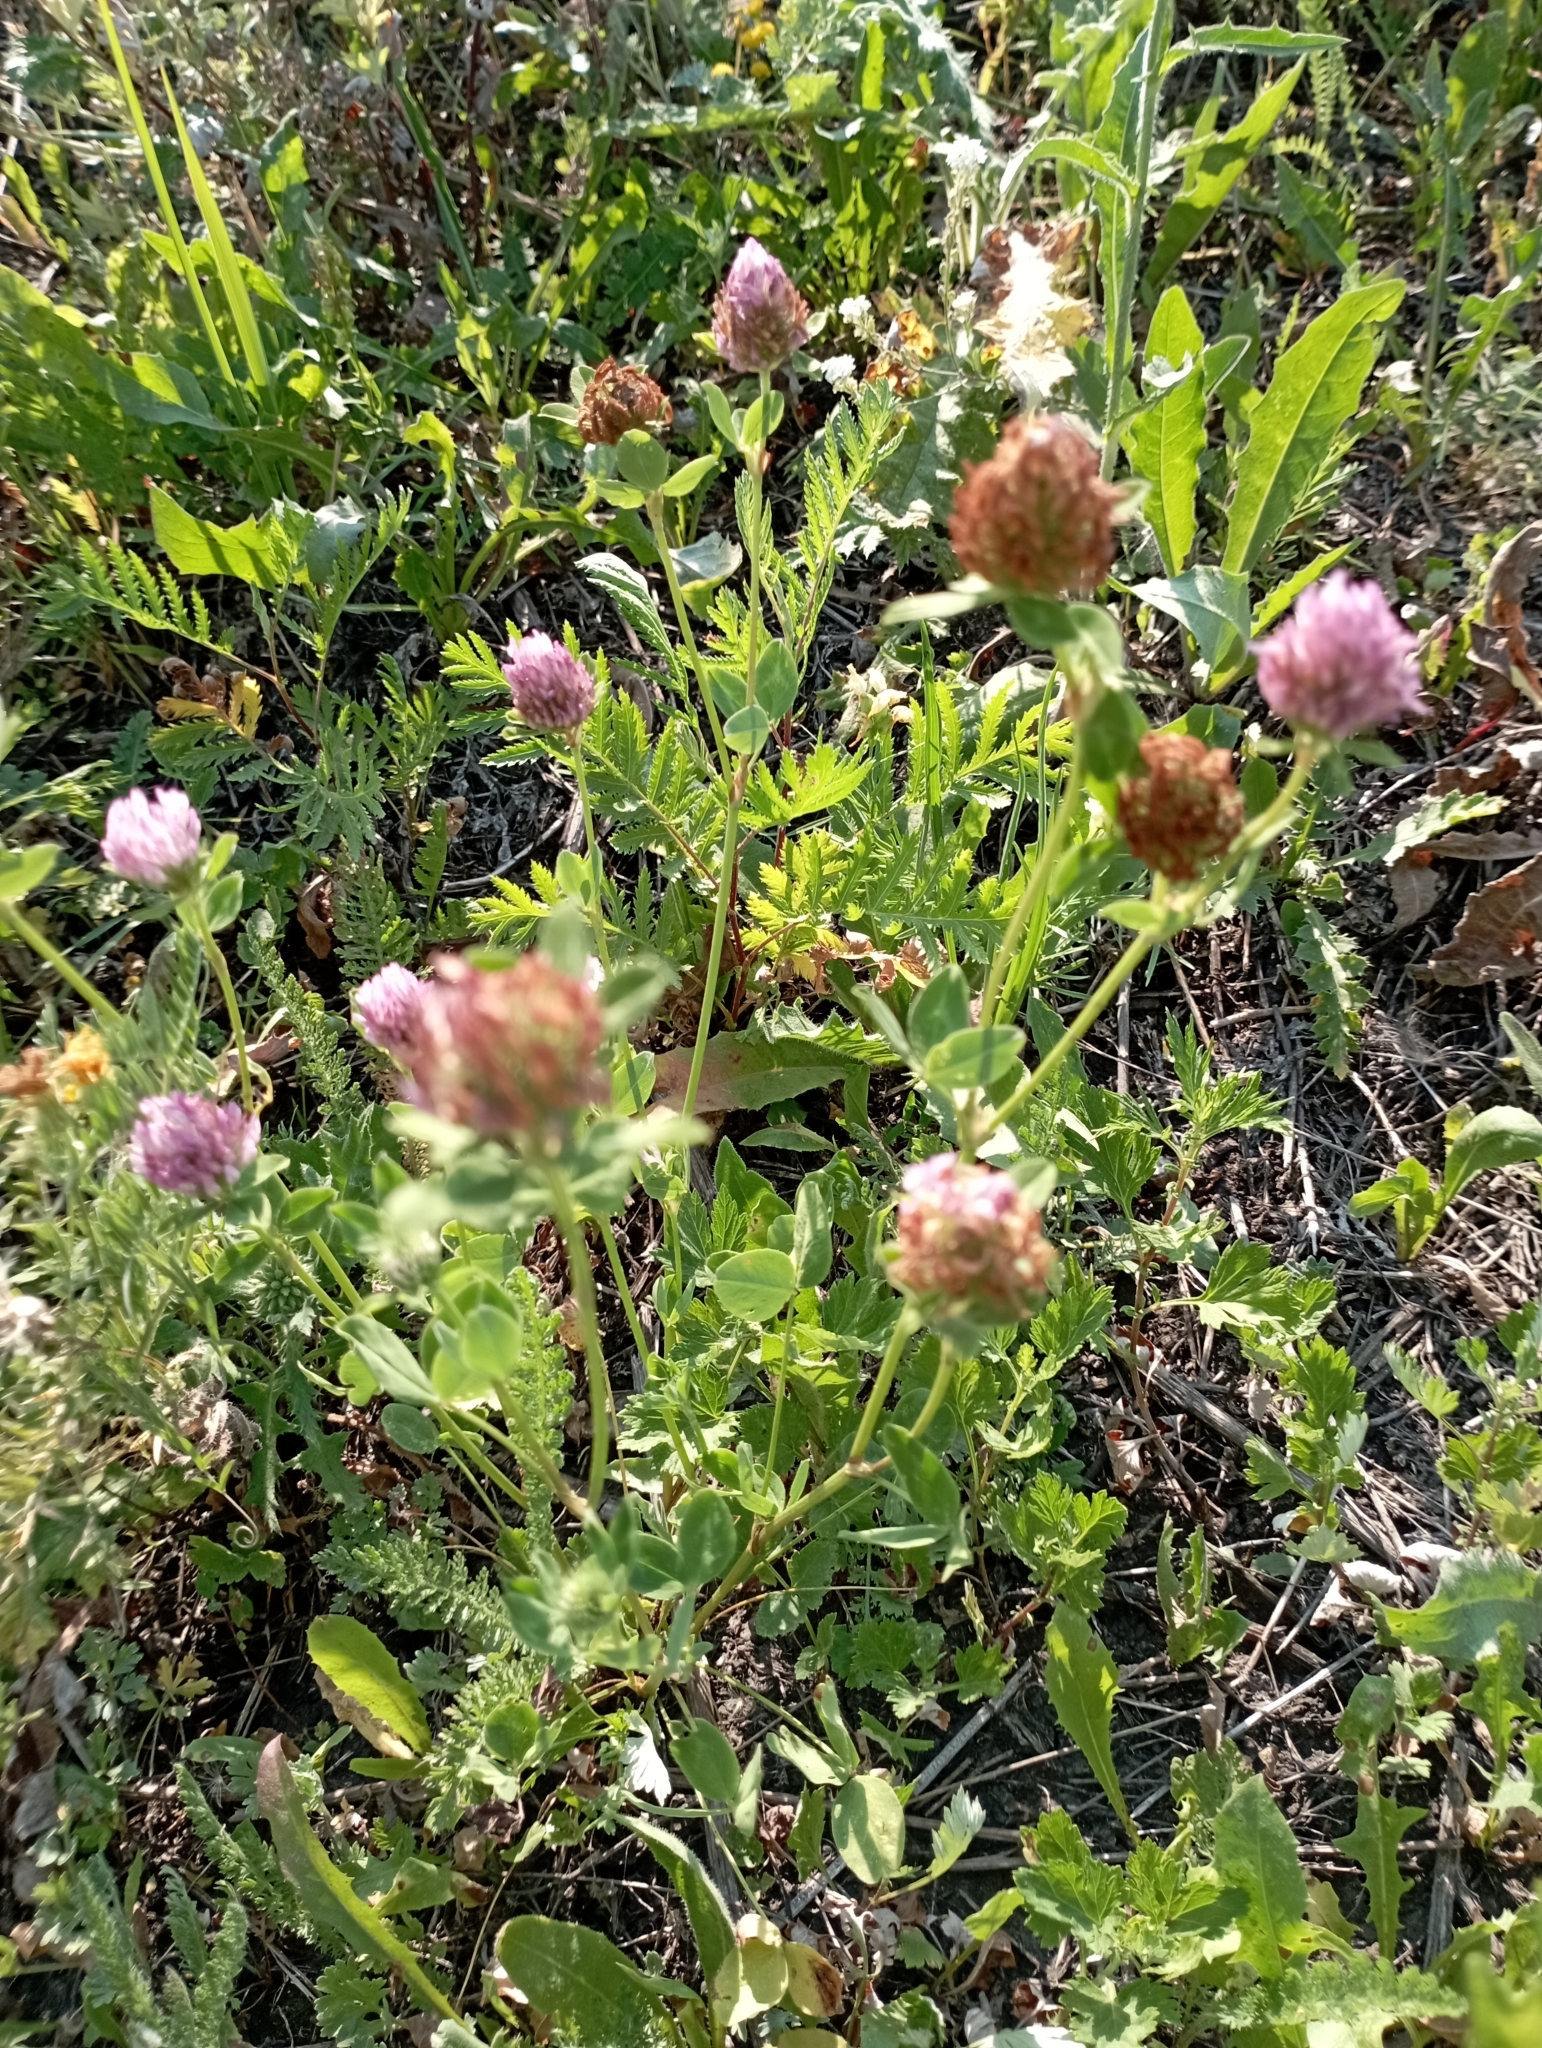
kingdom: Plantae
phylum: Tracheophyta
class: Magnoliopsida
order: Fabales
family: Fabaceae
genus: Trifolium
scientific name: Trifolium pratense
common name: Red clover
